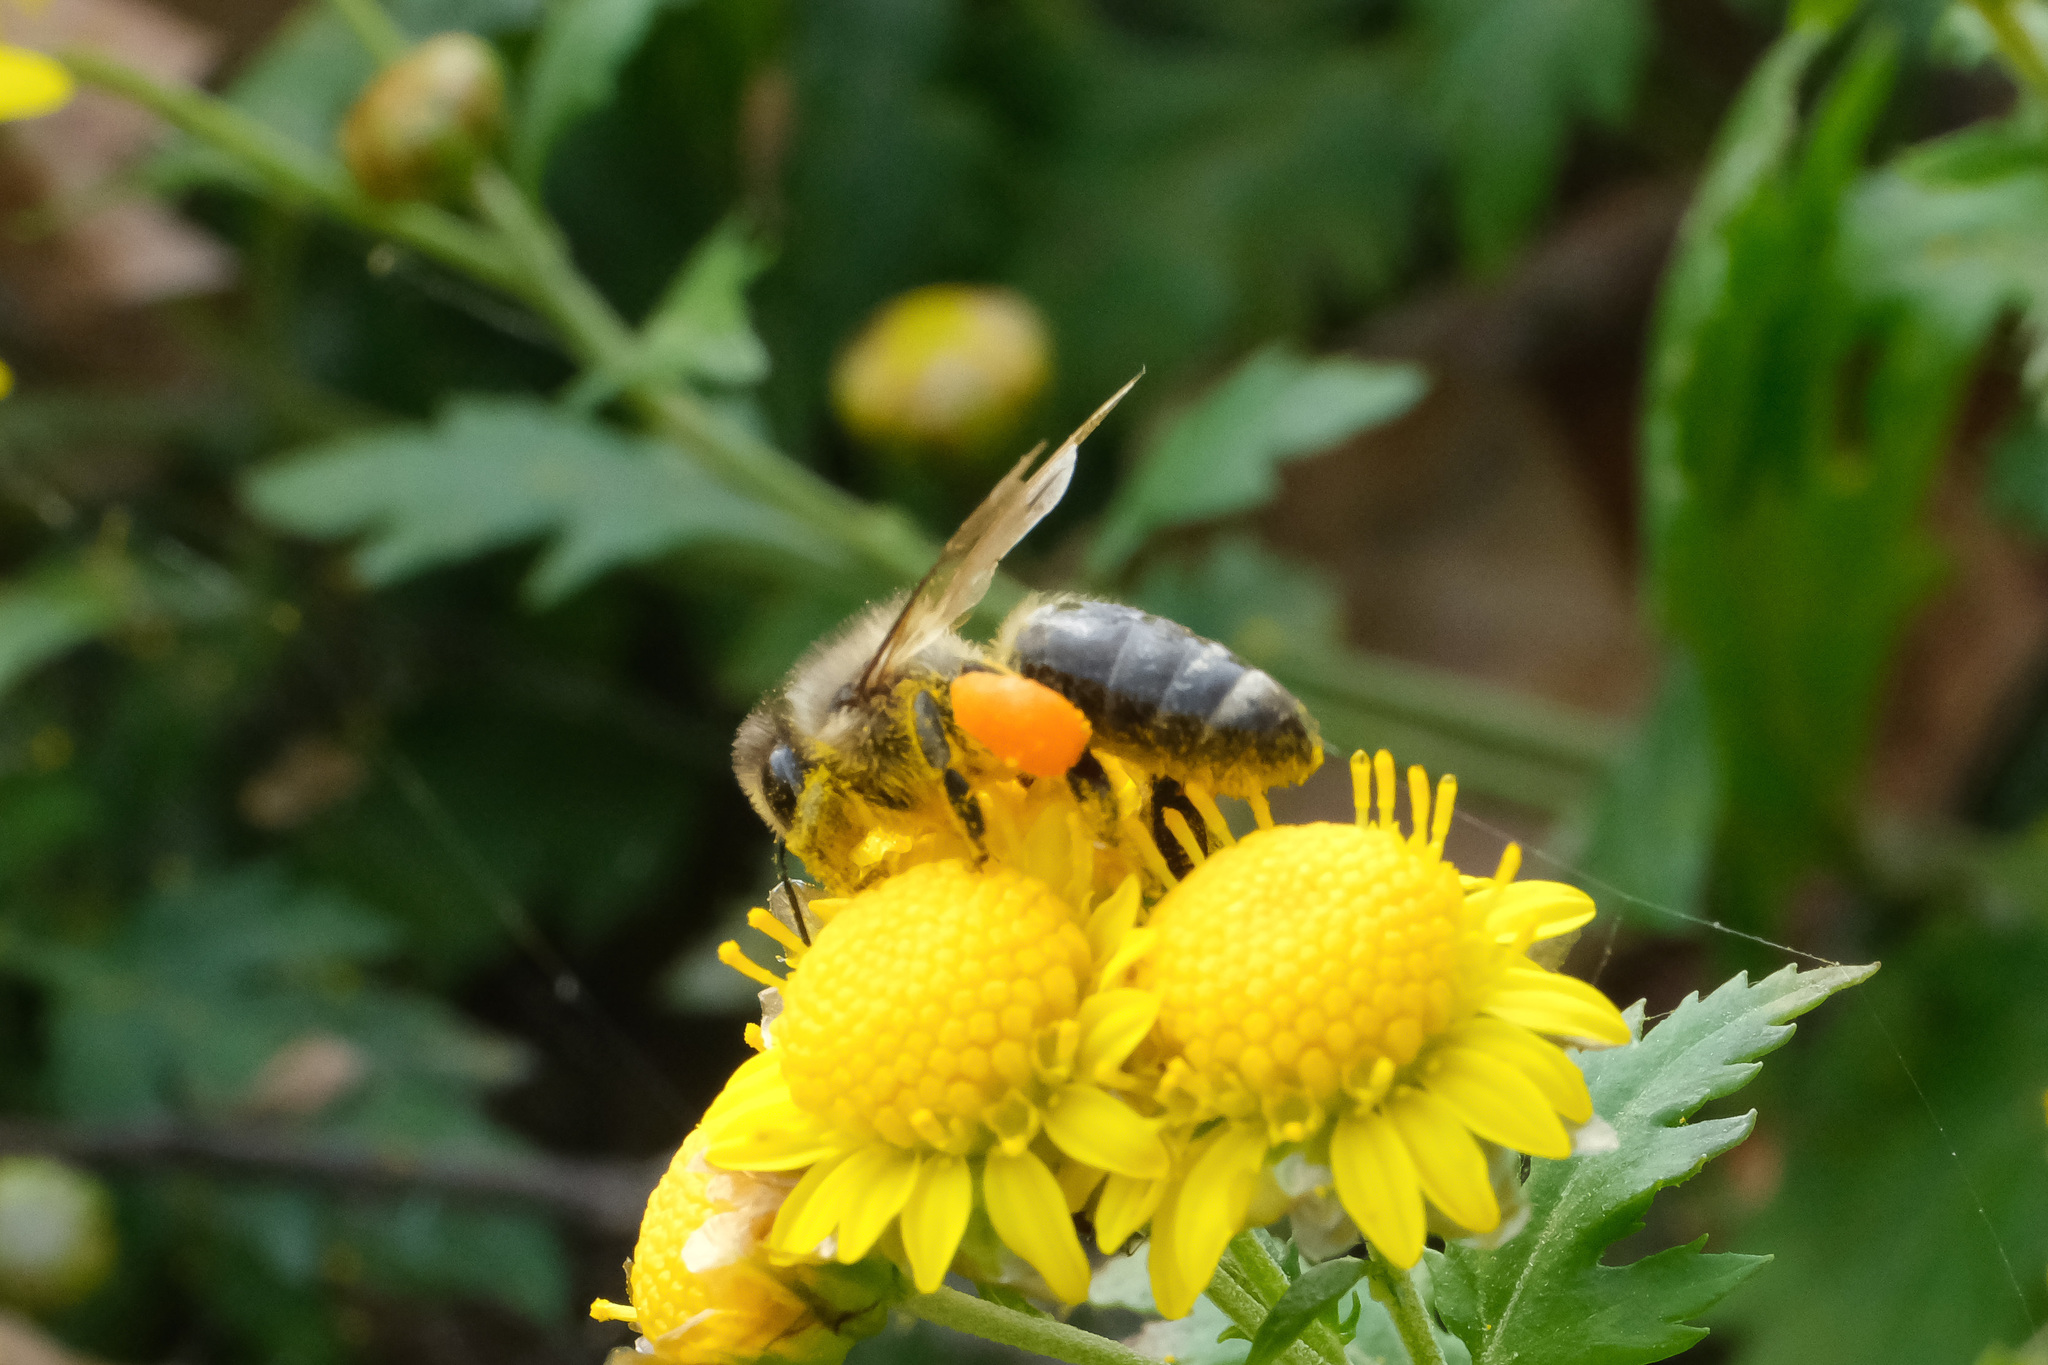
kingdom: Animalia
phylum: Arthropoda
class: Insecta
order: Hymenoptera
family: Apidae
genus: Apis
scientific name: Apis mellifera
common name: Honey bee
